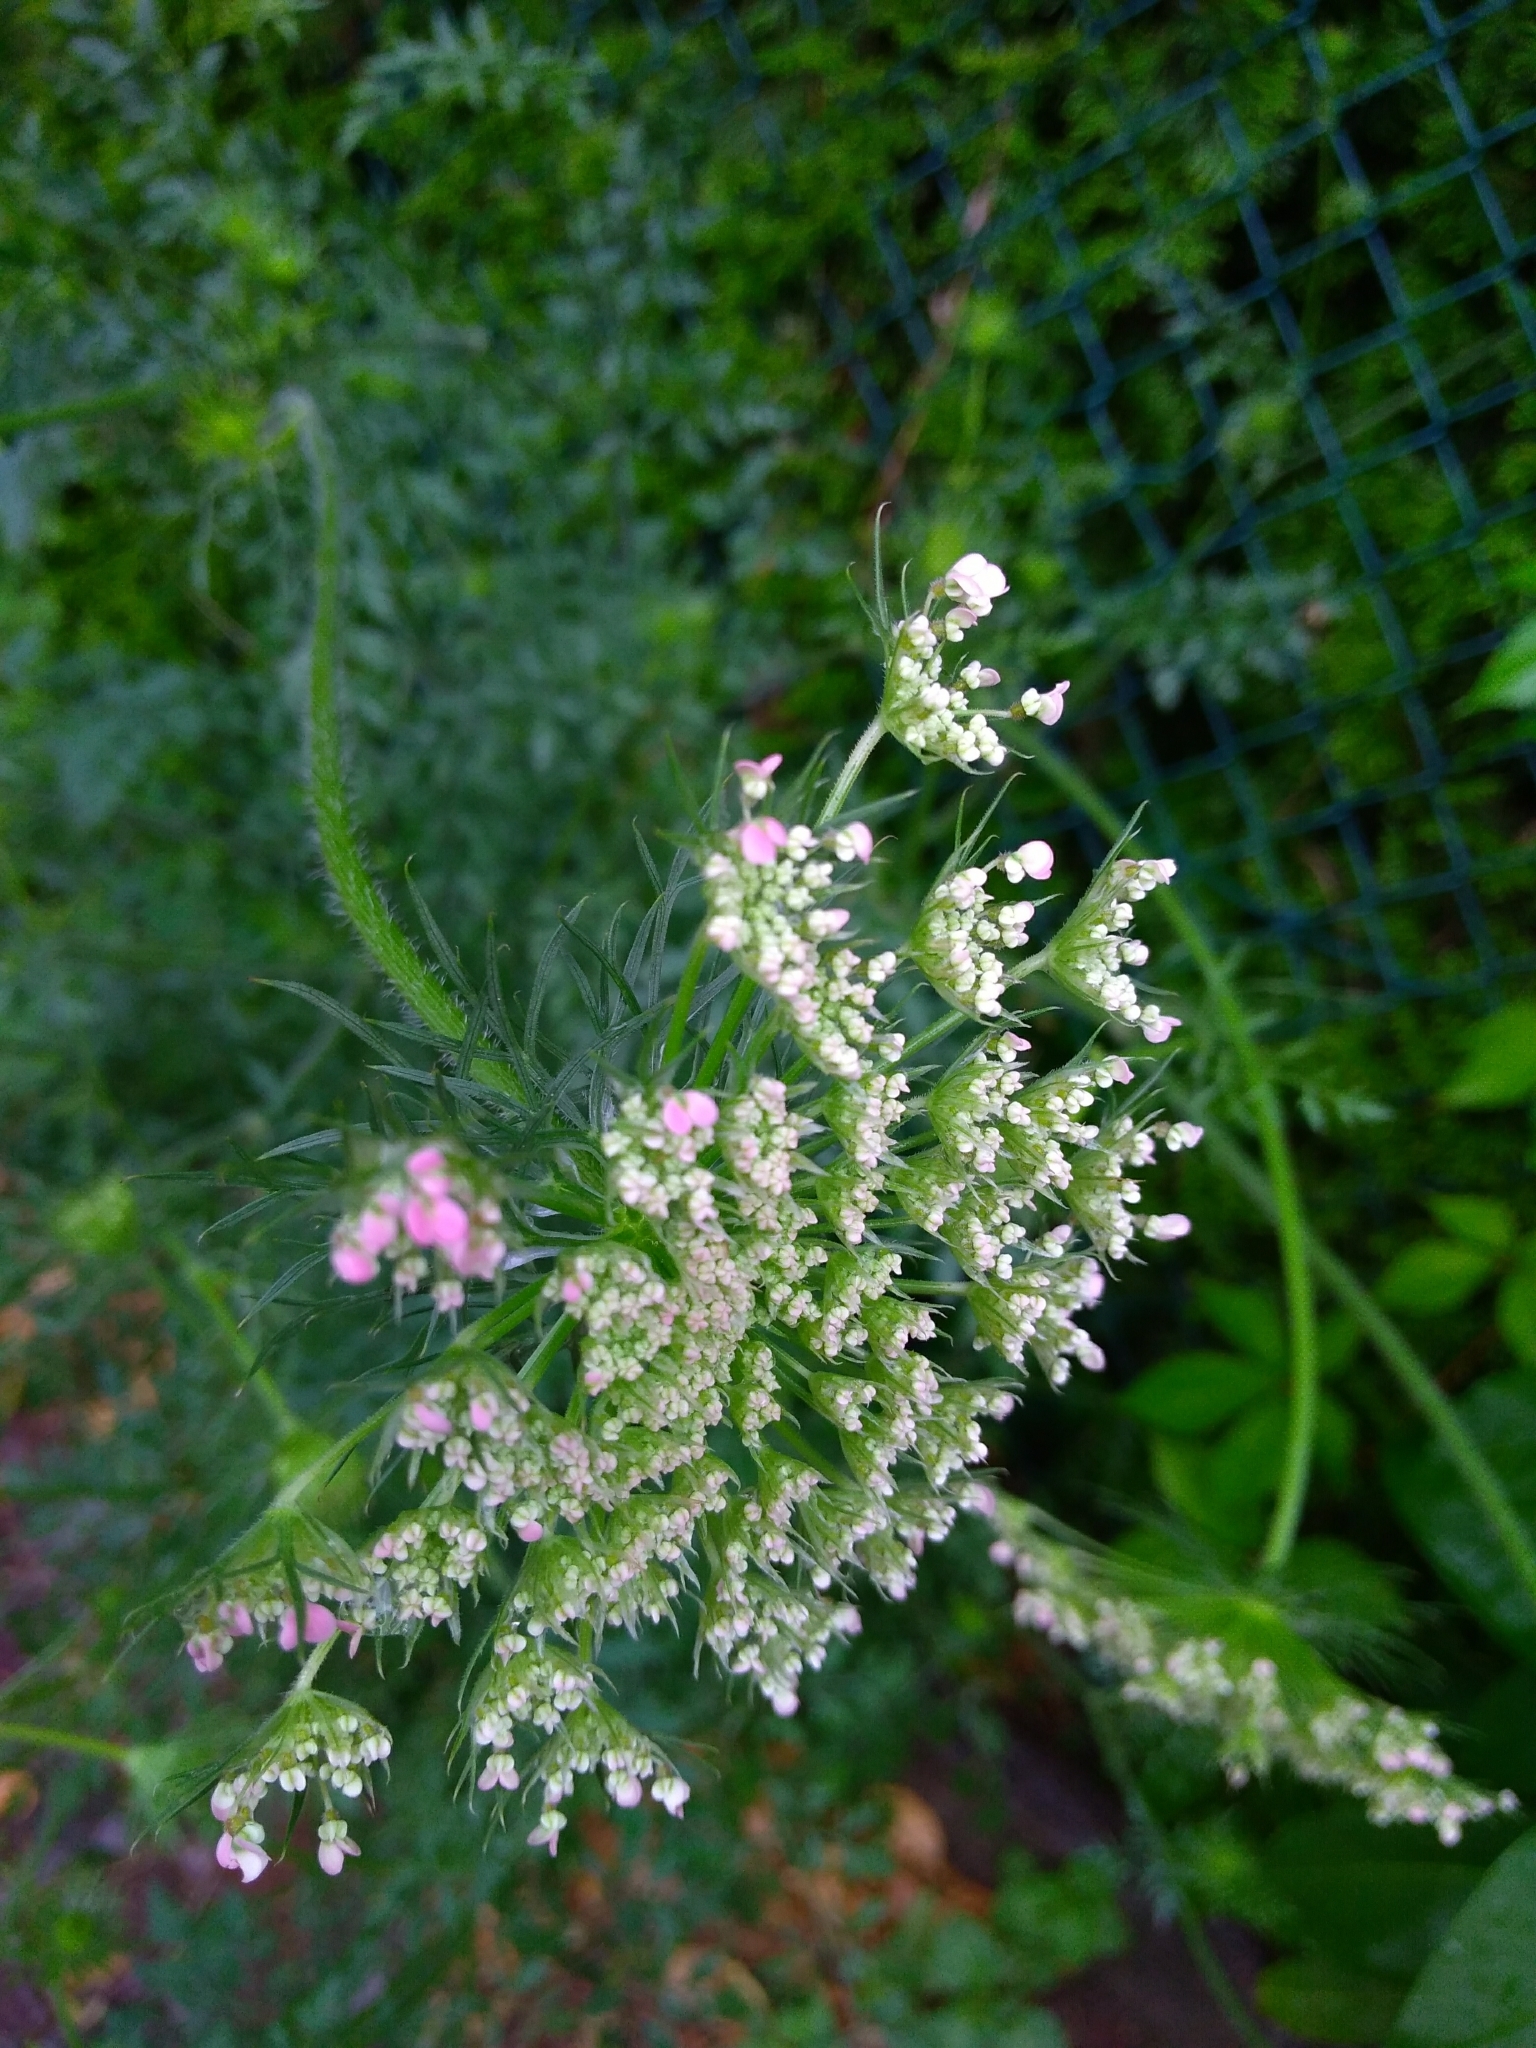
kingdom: Plantae
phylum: Tracheophyta
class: Magnoliopsida
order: Apiales
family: Apiaceae
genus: Daucus
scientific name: Daucus carota
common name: Wild carrot
